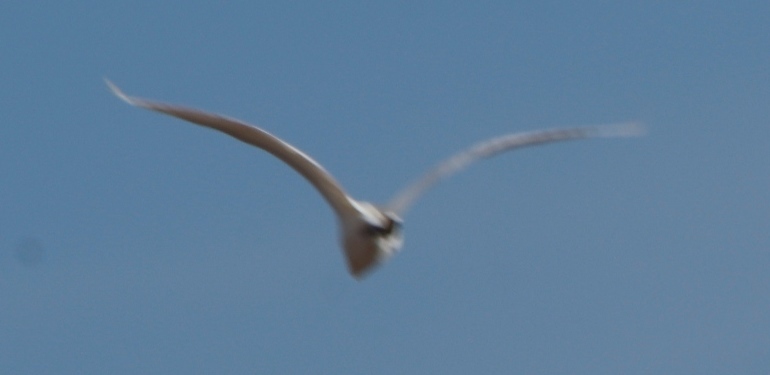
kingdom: Animalia
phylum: Chordata
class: Aves
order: Pelecaniformes
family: Ardeidae
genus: Egretta
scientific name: Egretta garzetta
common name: Little egret
